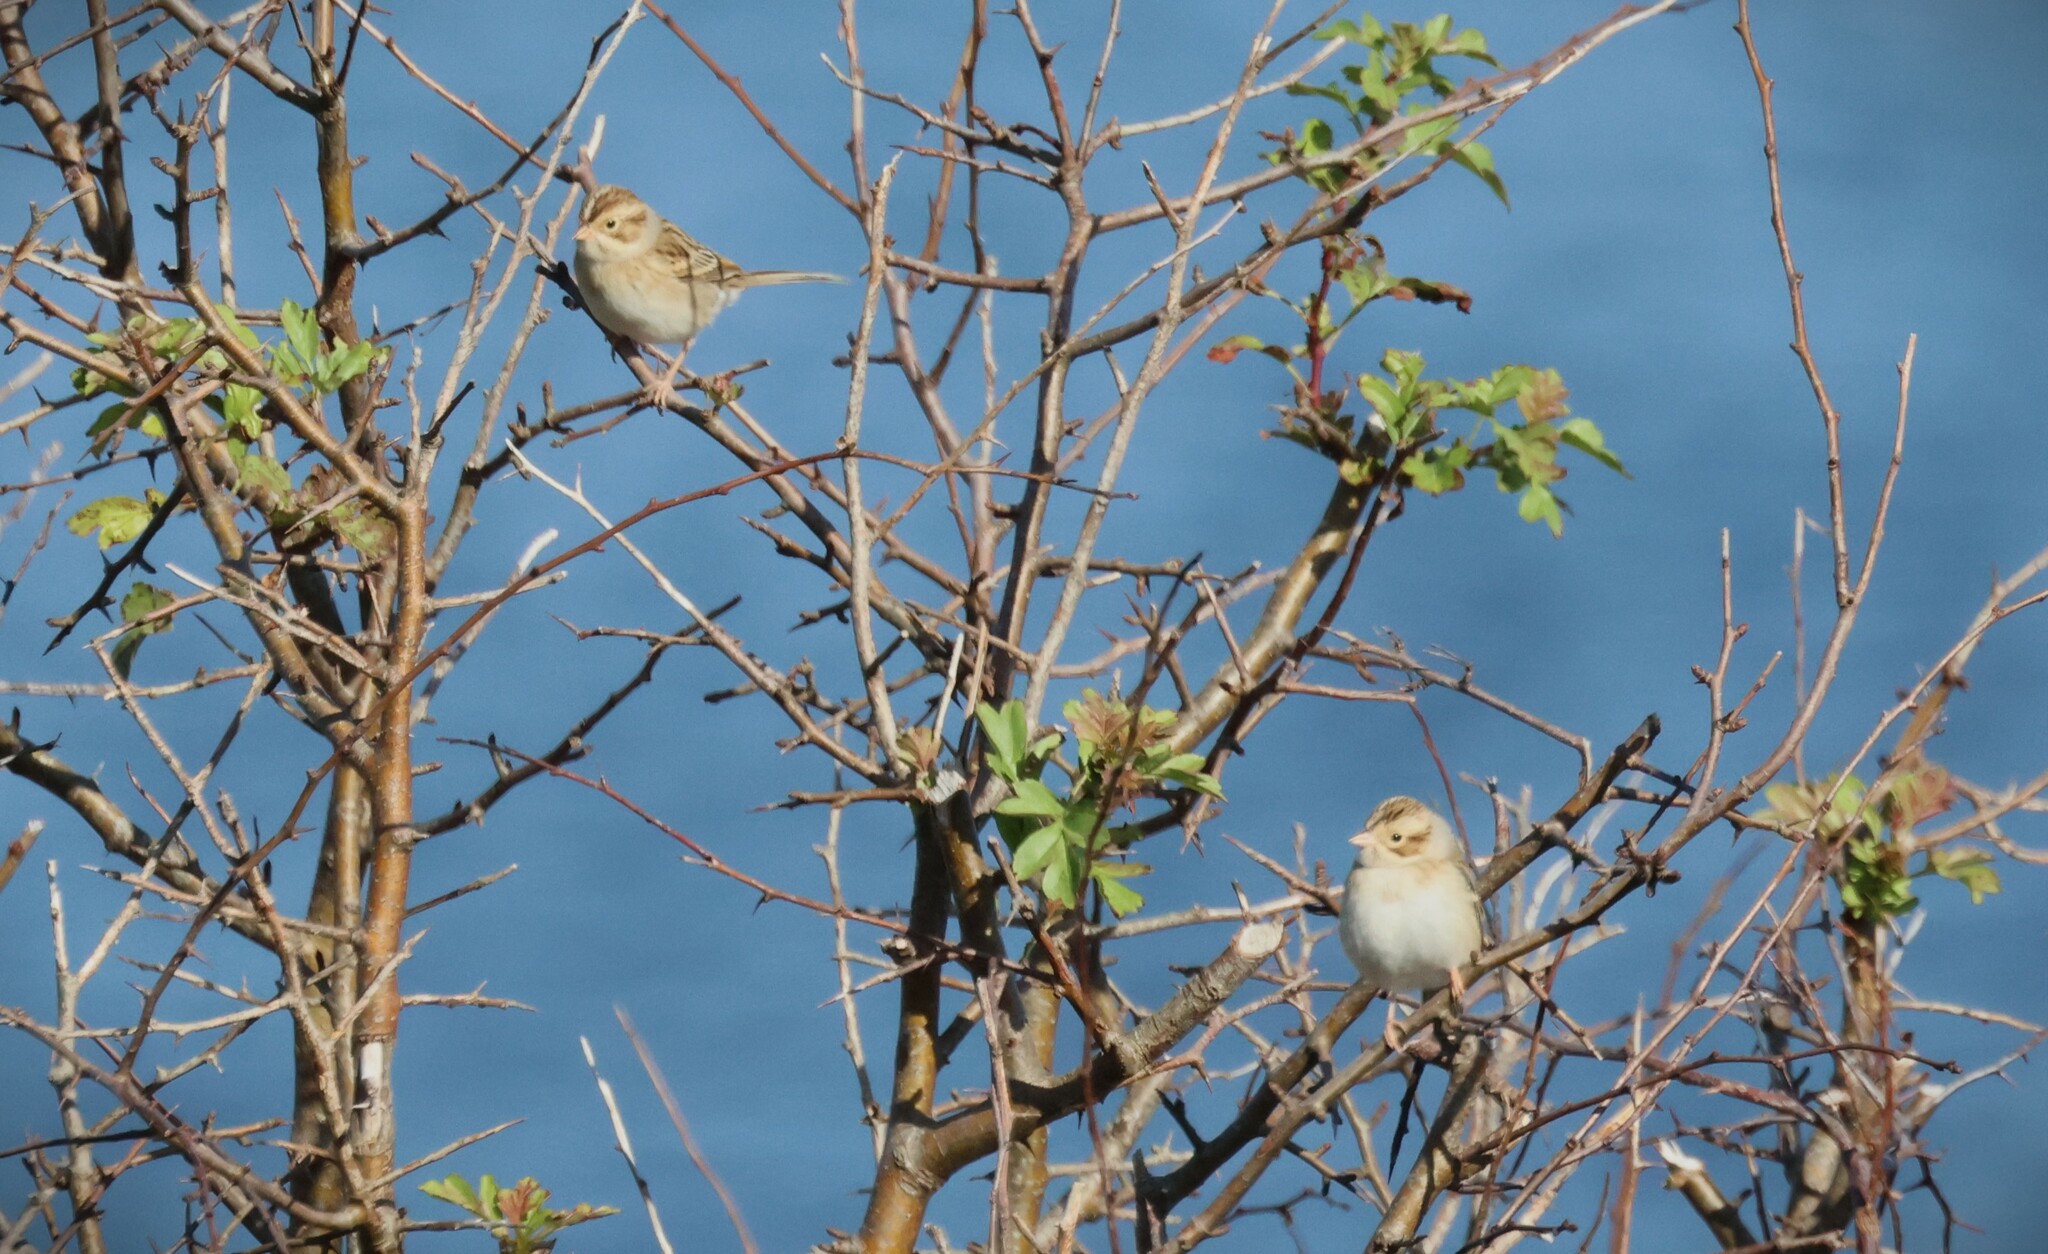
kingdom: Animalia
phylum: Chordata
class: Aves
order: Passeriformes
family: Passerellidae
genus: Spizella
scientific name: Spizella pallida
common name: Clay-colored sparrow
